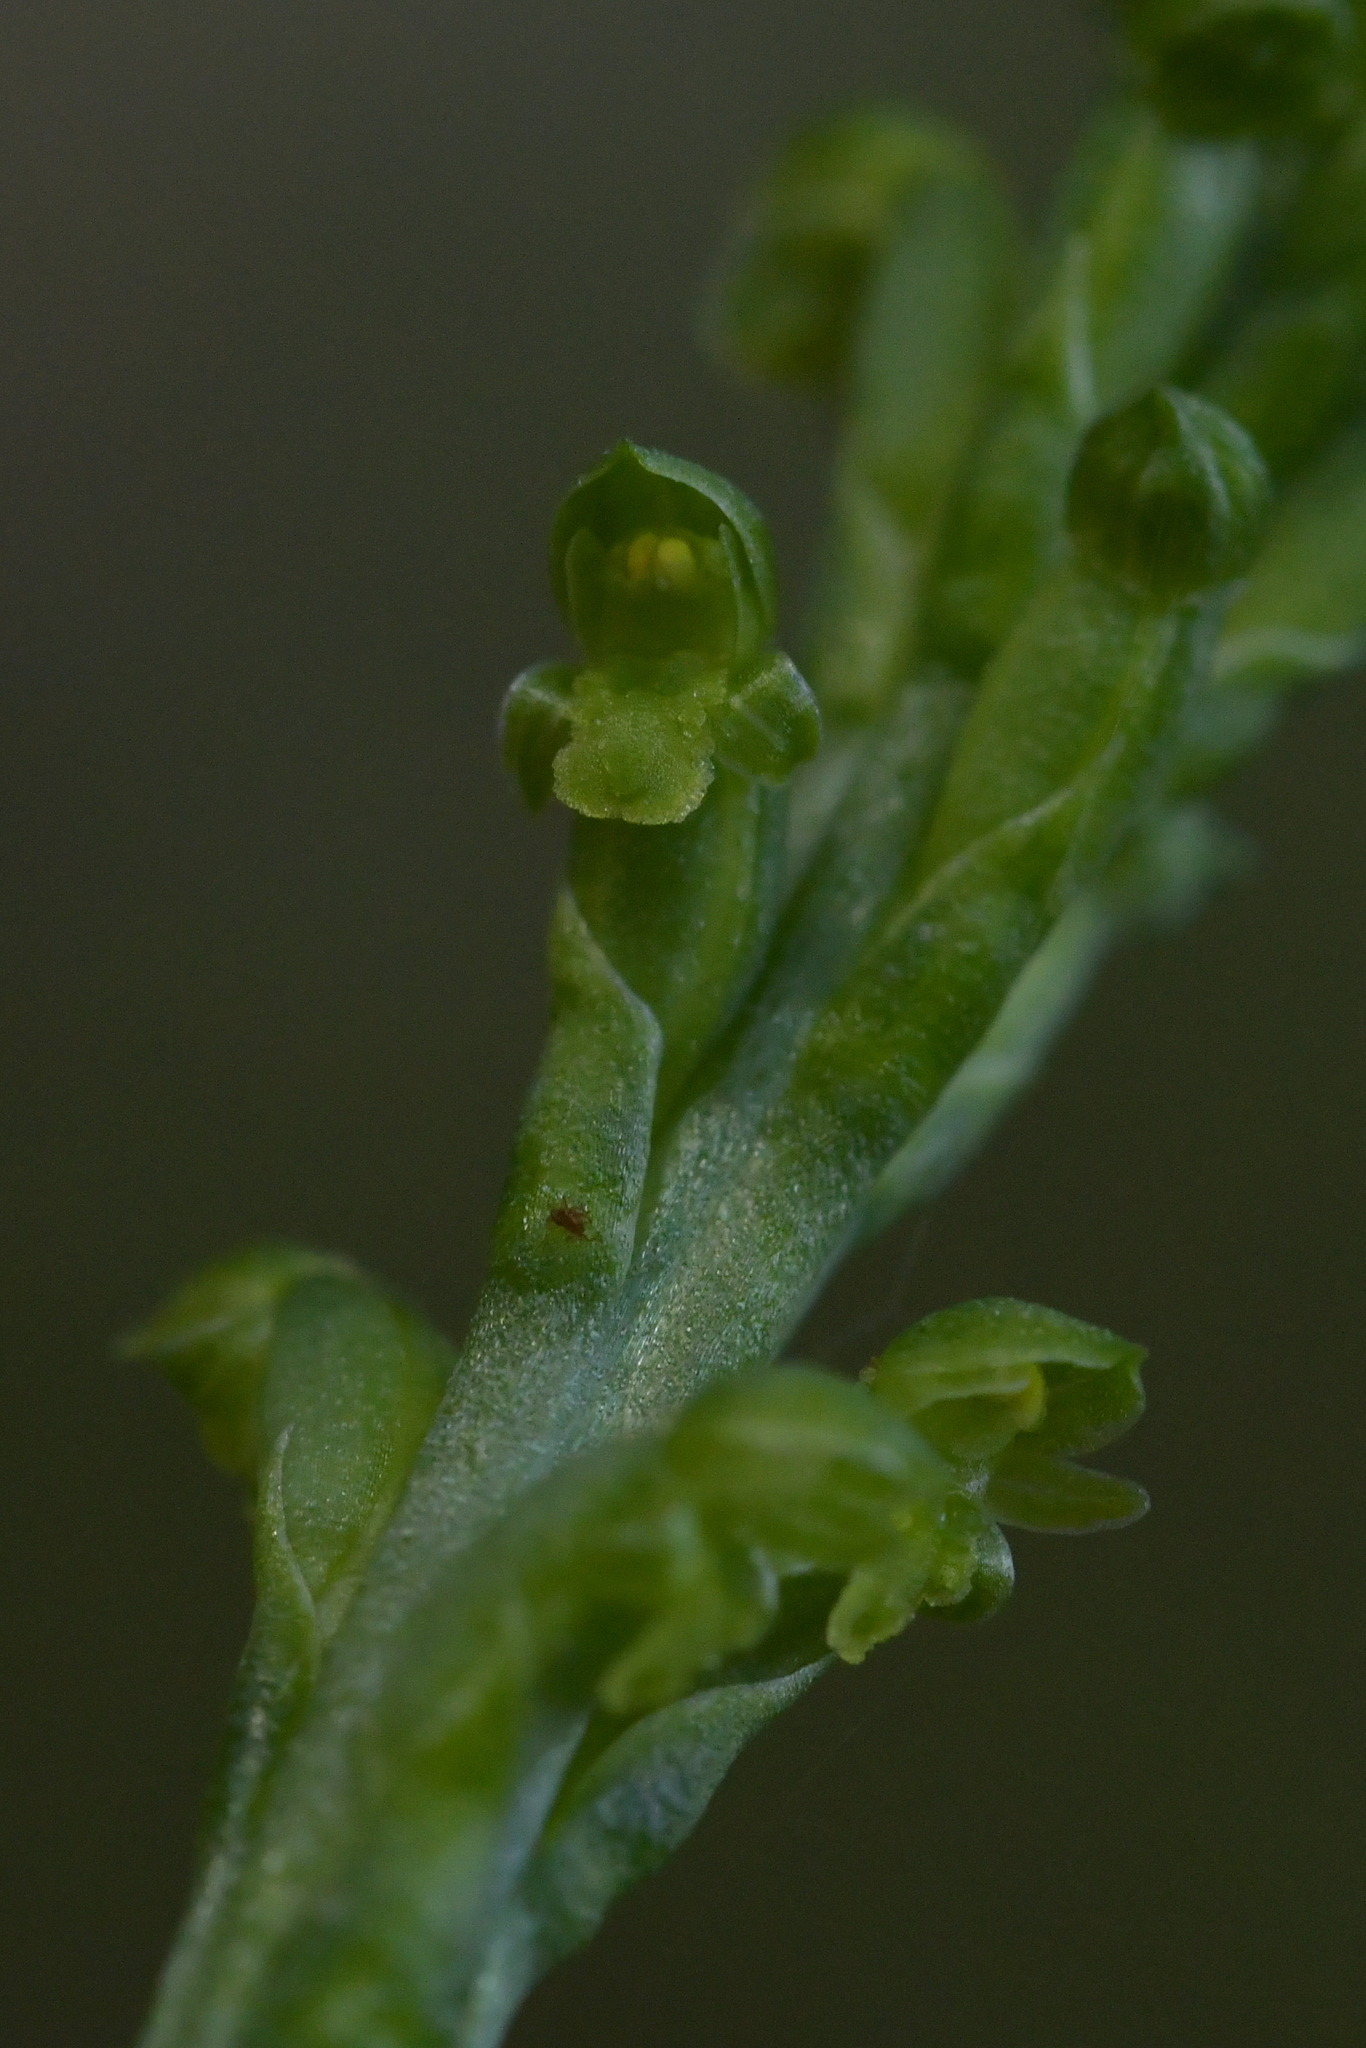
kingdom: Plantae
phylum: Tracheophyta
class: Liliopsida
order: Asparagales
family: Orchidaceae
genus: Microtis
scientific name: Microtis unifolia
